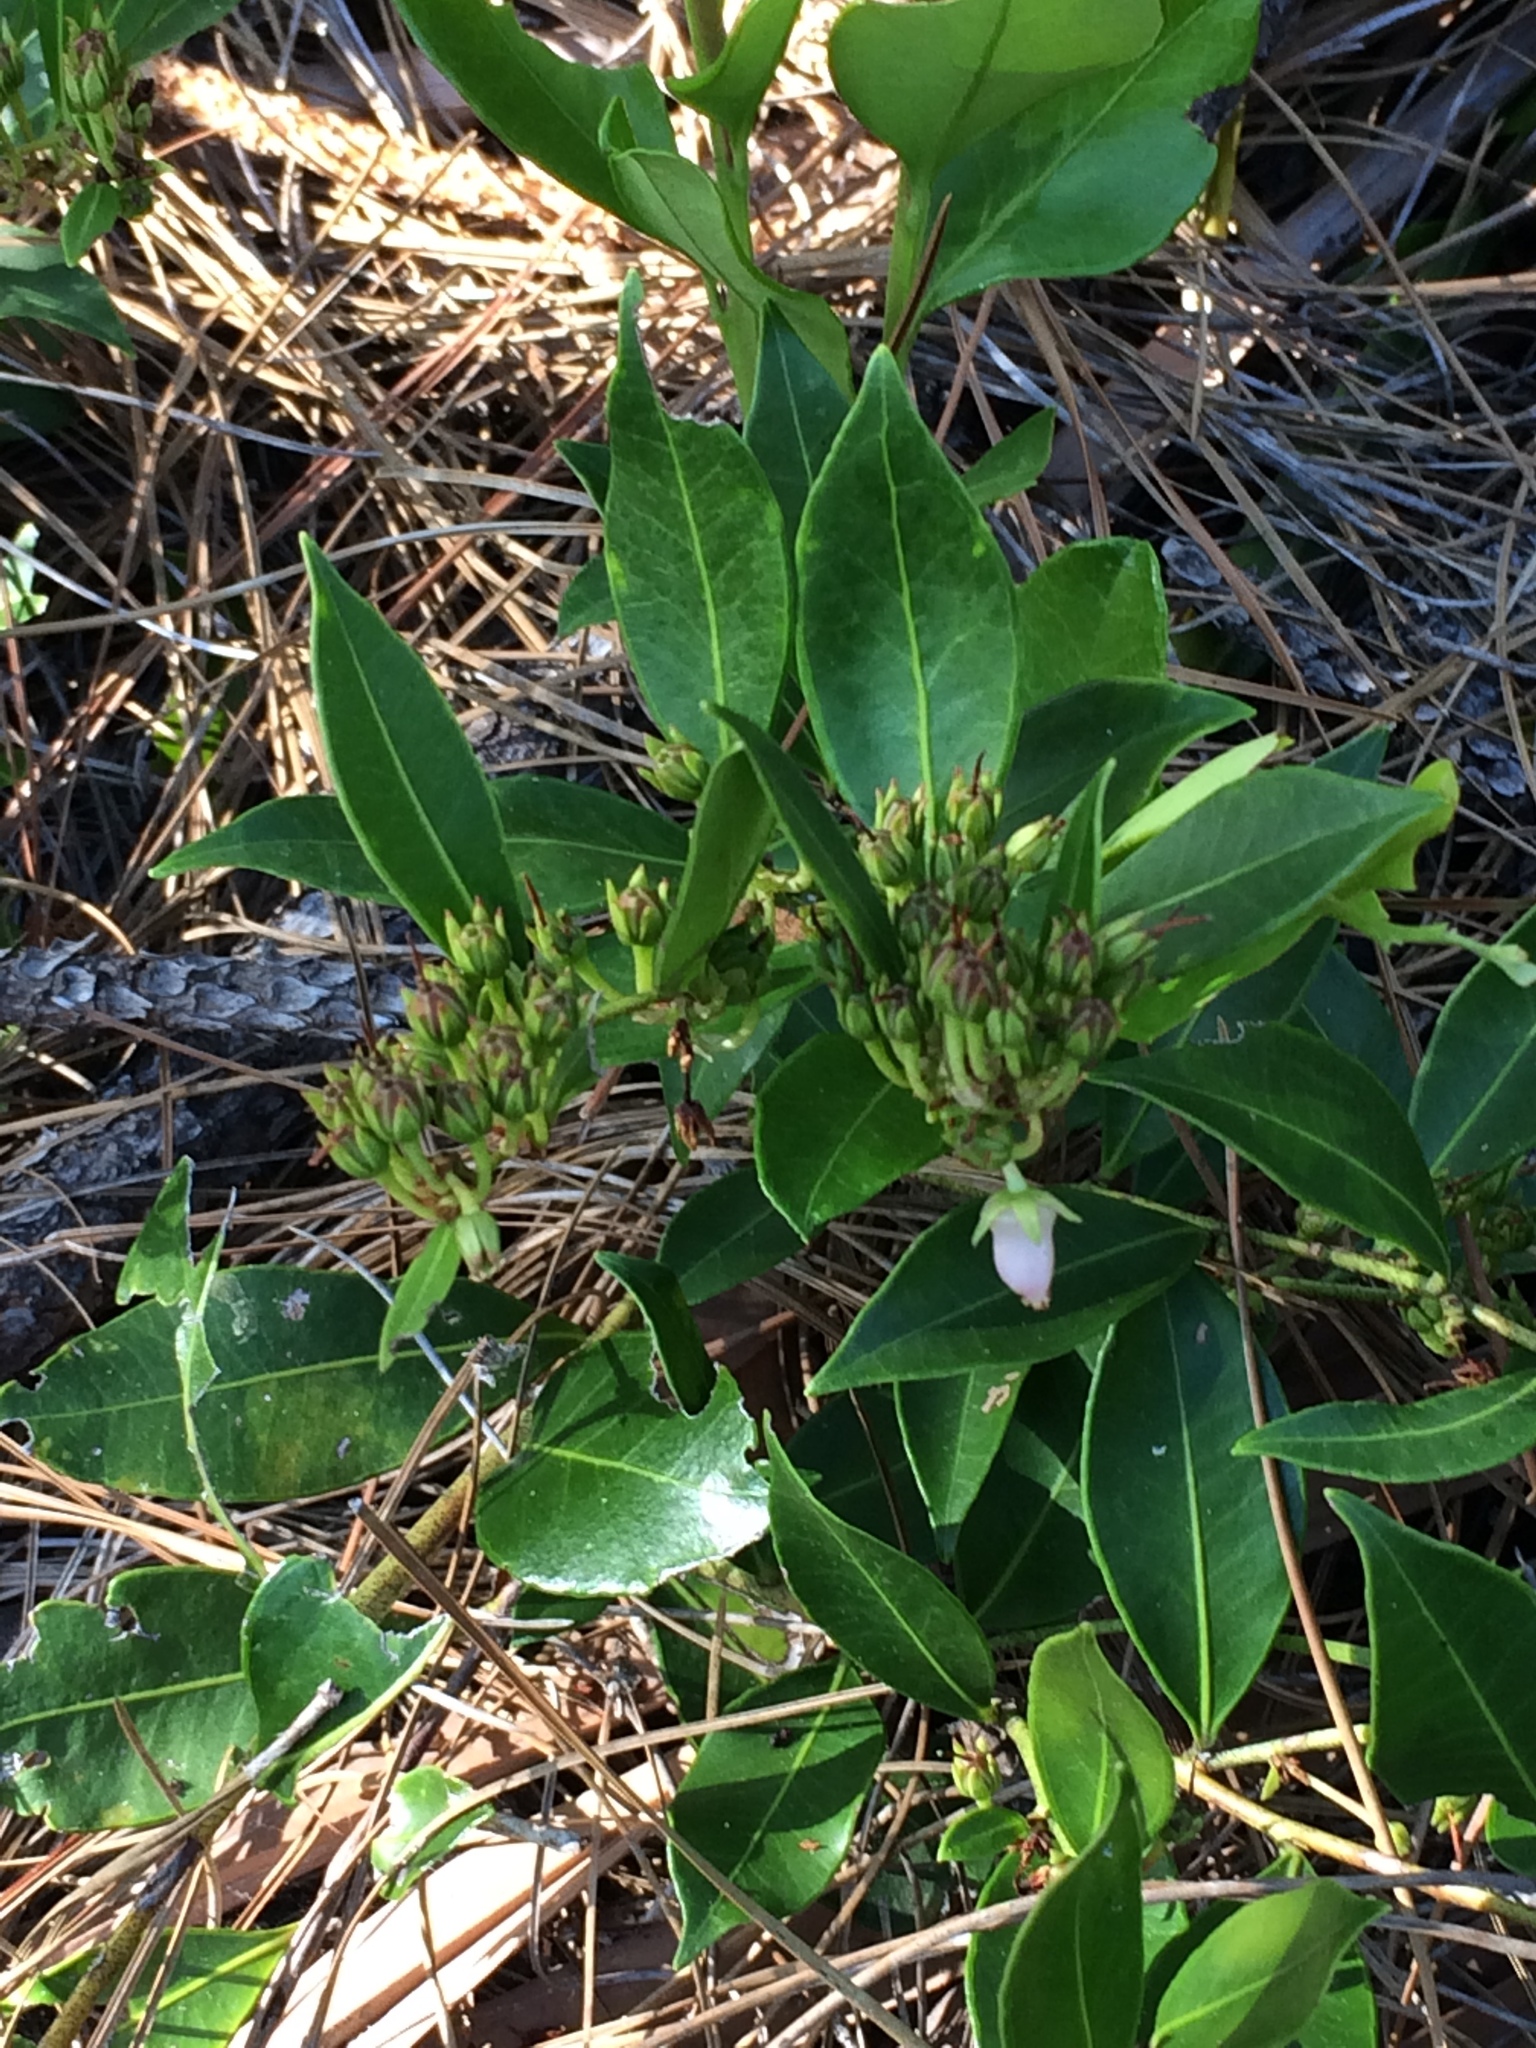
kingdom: Plantae
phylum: Tracheophyta
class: Magnoliopsida
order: Ericales
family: Ericaceae
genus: Lyonia
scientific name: Lyonia lucida
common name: Fetterbush
